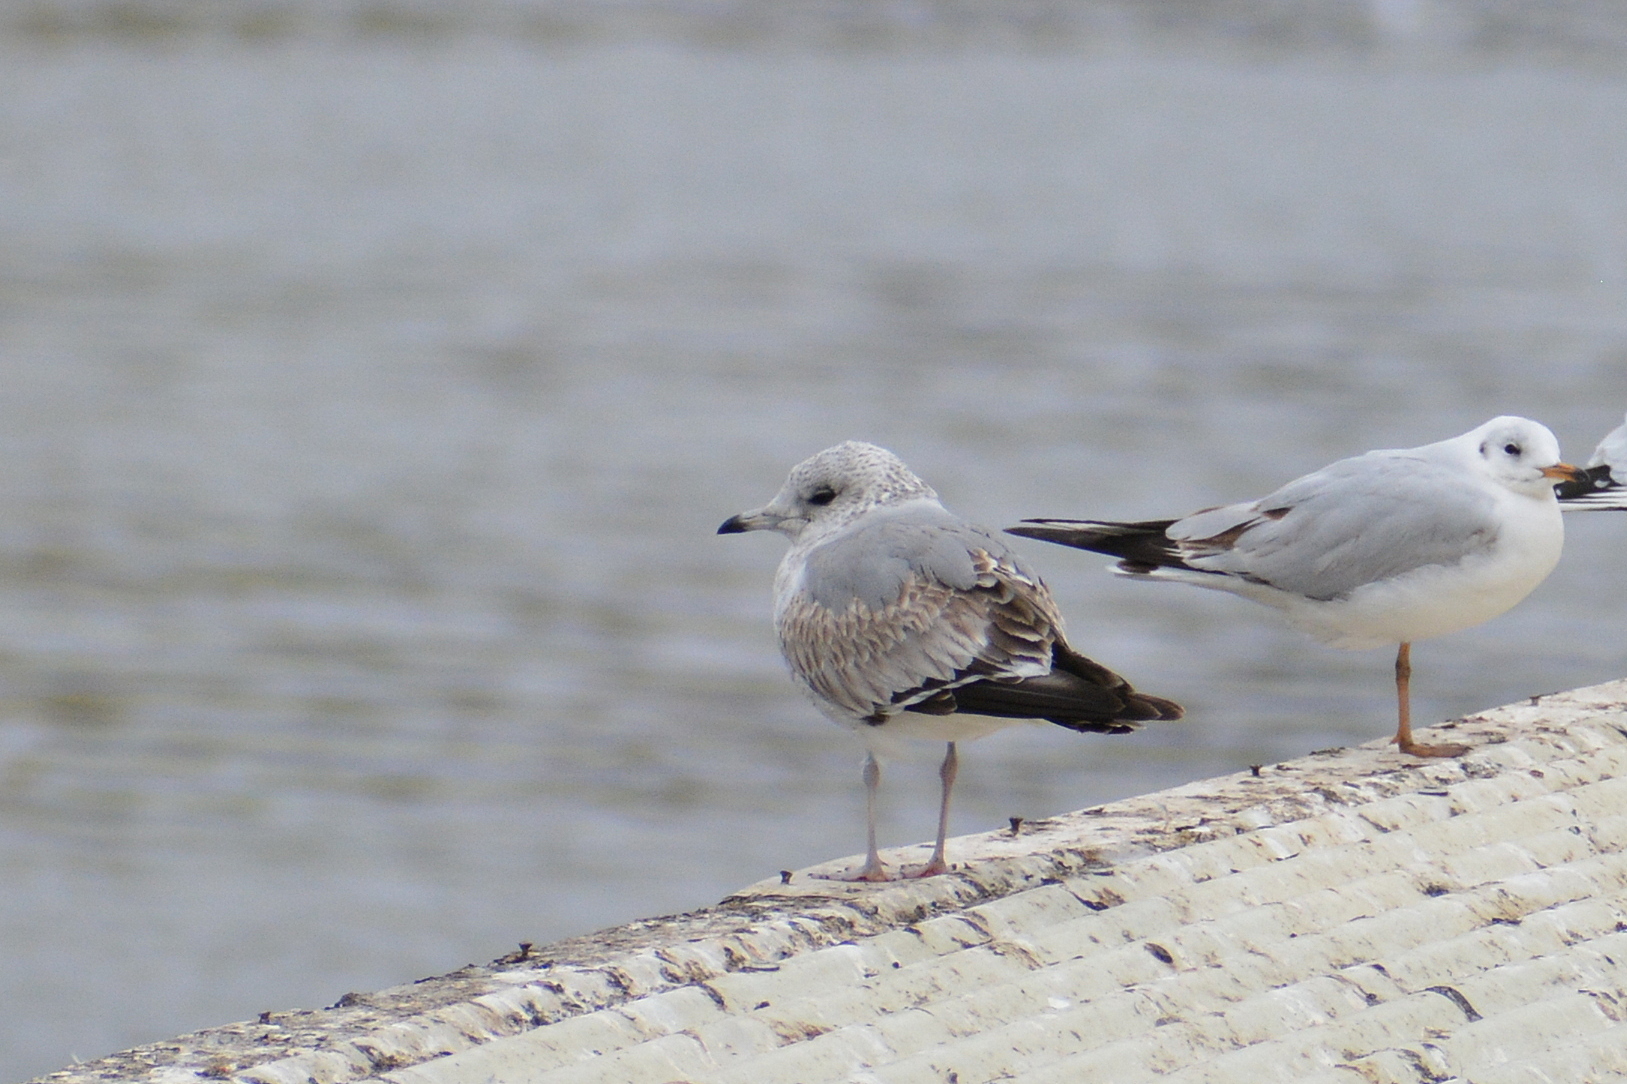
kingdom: Animalia
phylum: Chordata
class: Aves
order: Charadriiformes
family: Laridae
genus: Larus
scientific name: Larus canus
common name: Mew gull
